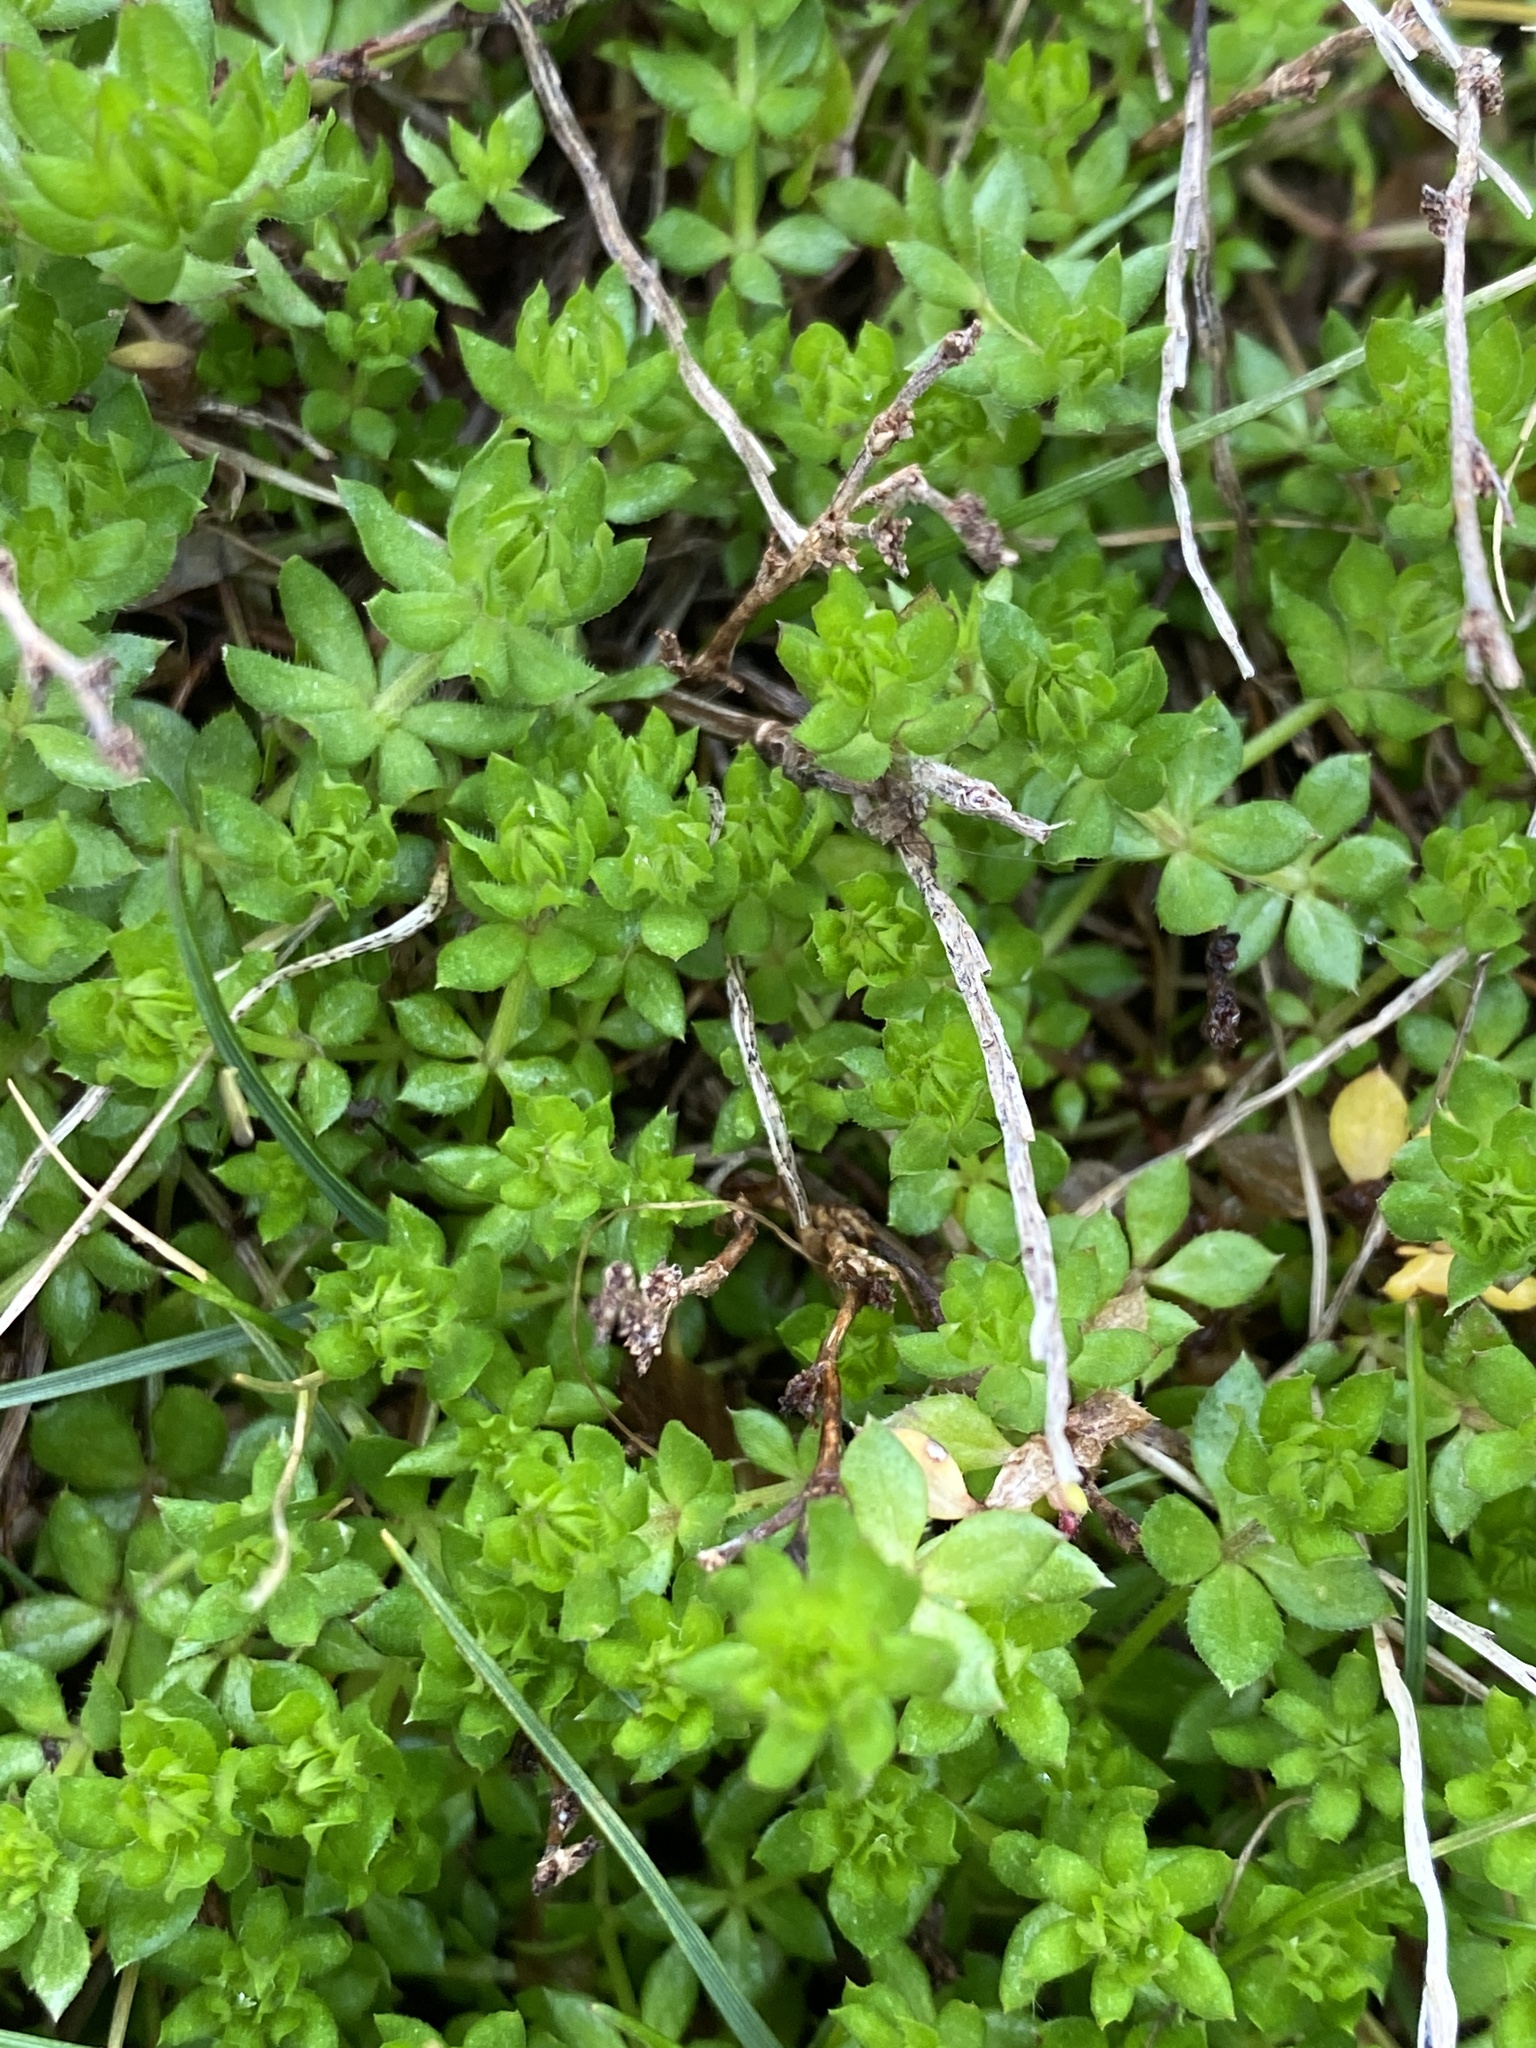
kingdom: Plantae
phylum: Tracheophyta
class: Magnoliopsida
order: Gentianales
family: Rubiaceae
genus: Sherardia
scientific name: Sherardia arvensis
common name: Field madder
